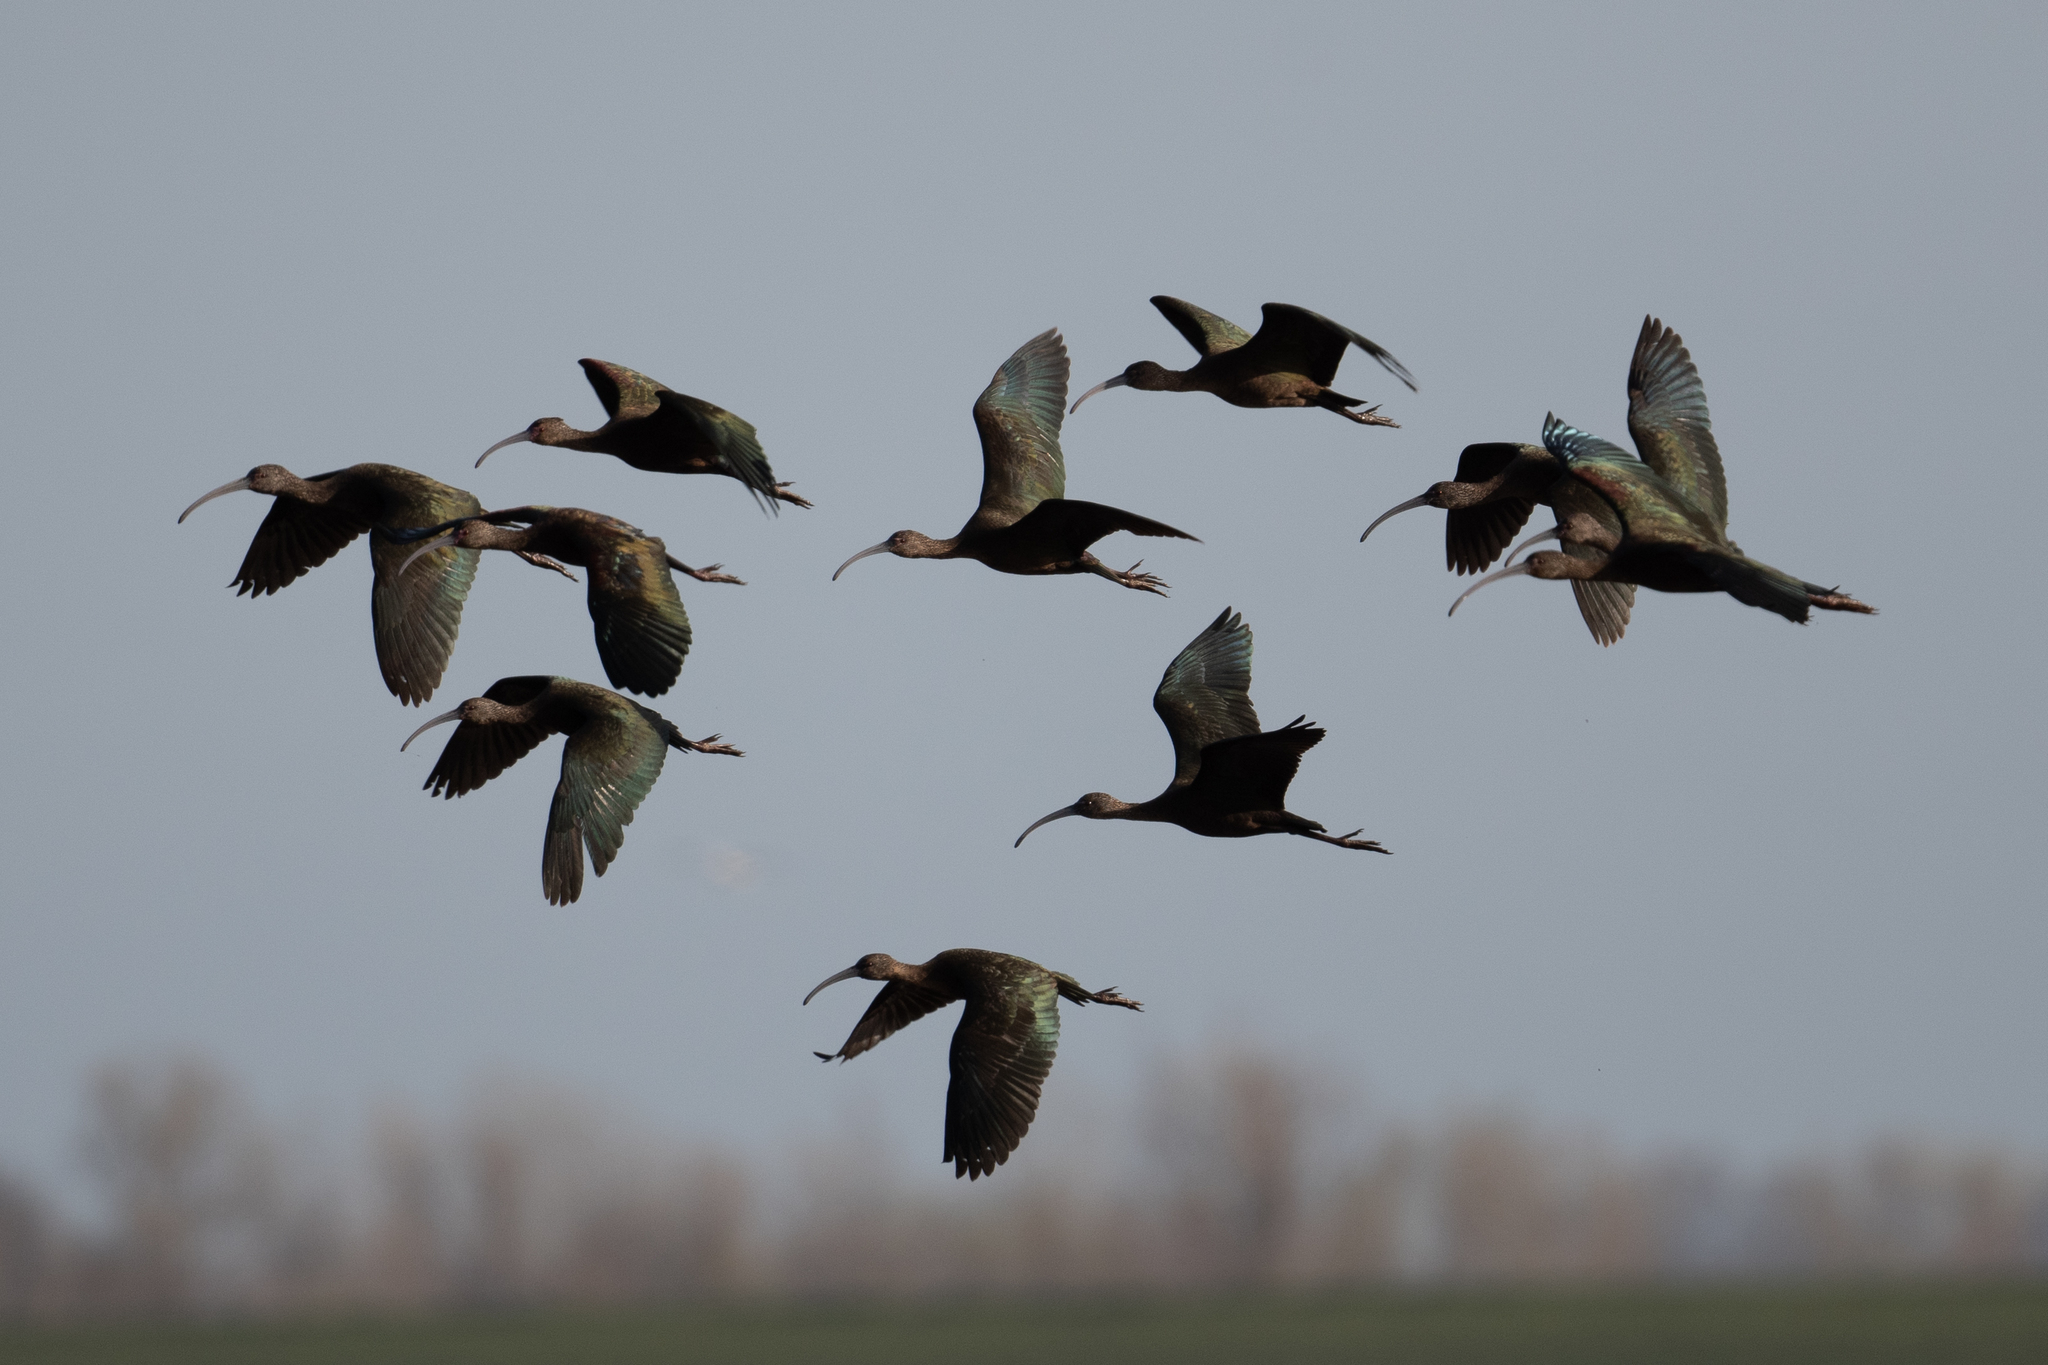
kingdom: Animalia
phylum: Chordata
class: Aves
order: Pelecaniformes
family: Threskiornithidae
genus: Plegadis
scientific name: Plegadis chihi
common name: White-faced ibis
